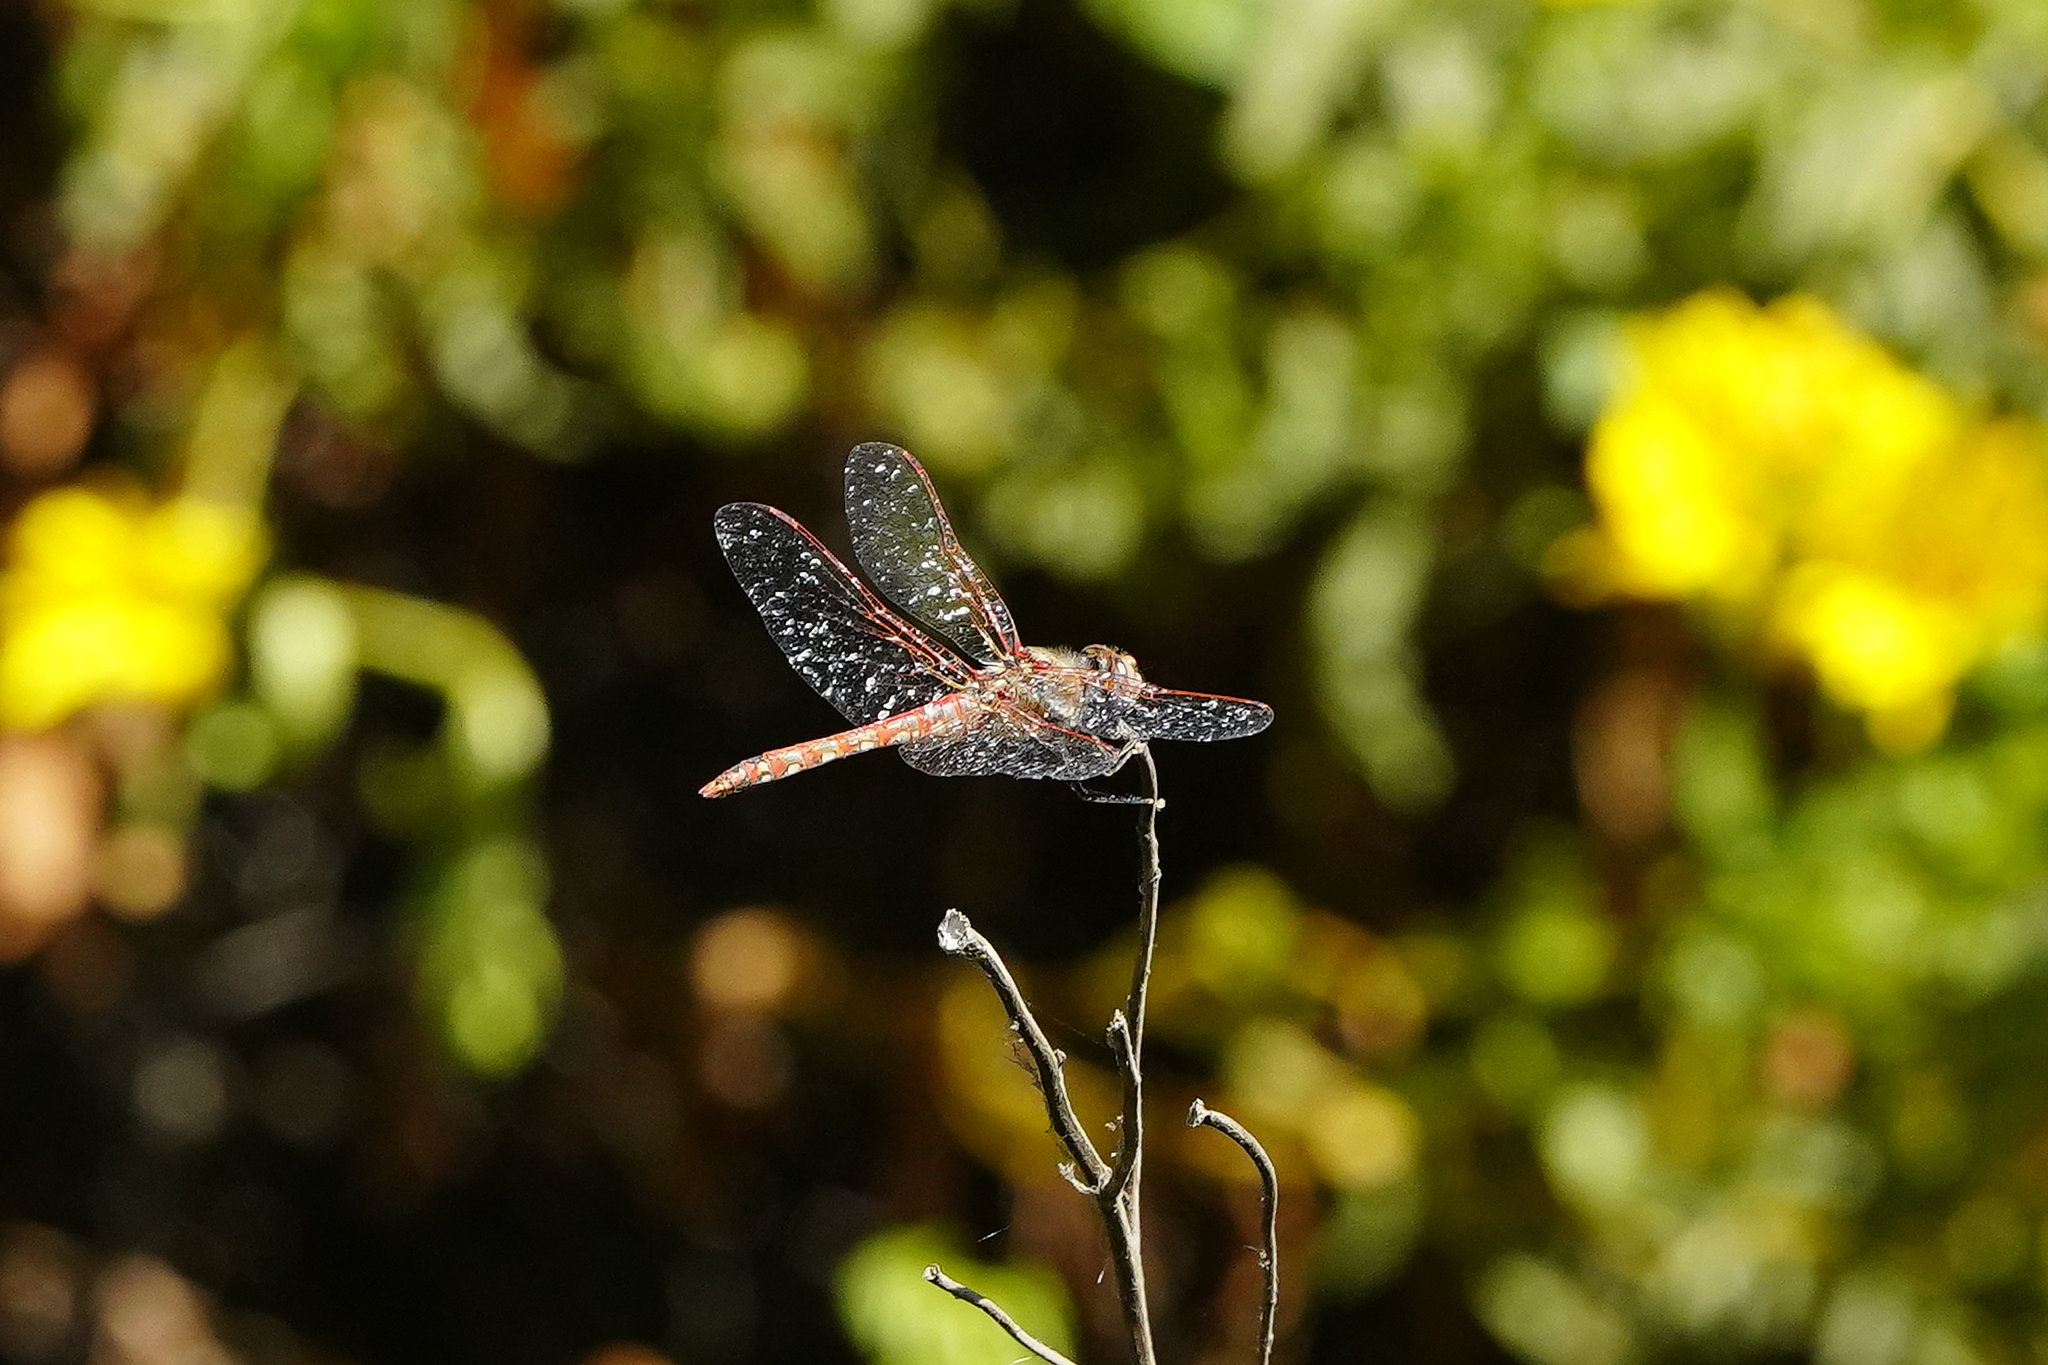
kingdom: Animalia
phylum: Arthropoda
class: Insecta
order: Odonata
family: Libellulidae
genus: Sympetrum
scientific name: Sympetrum corruptum
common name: Variegated meadowhawk
